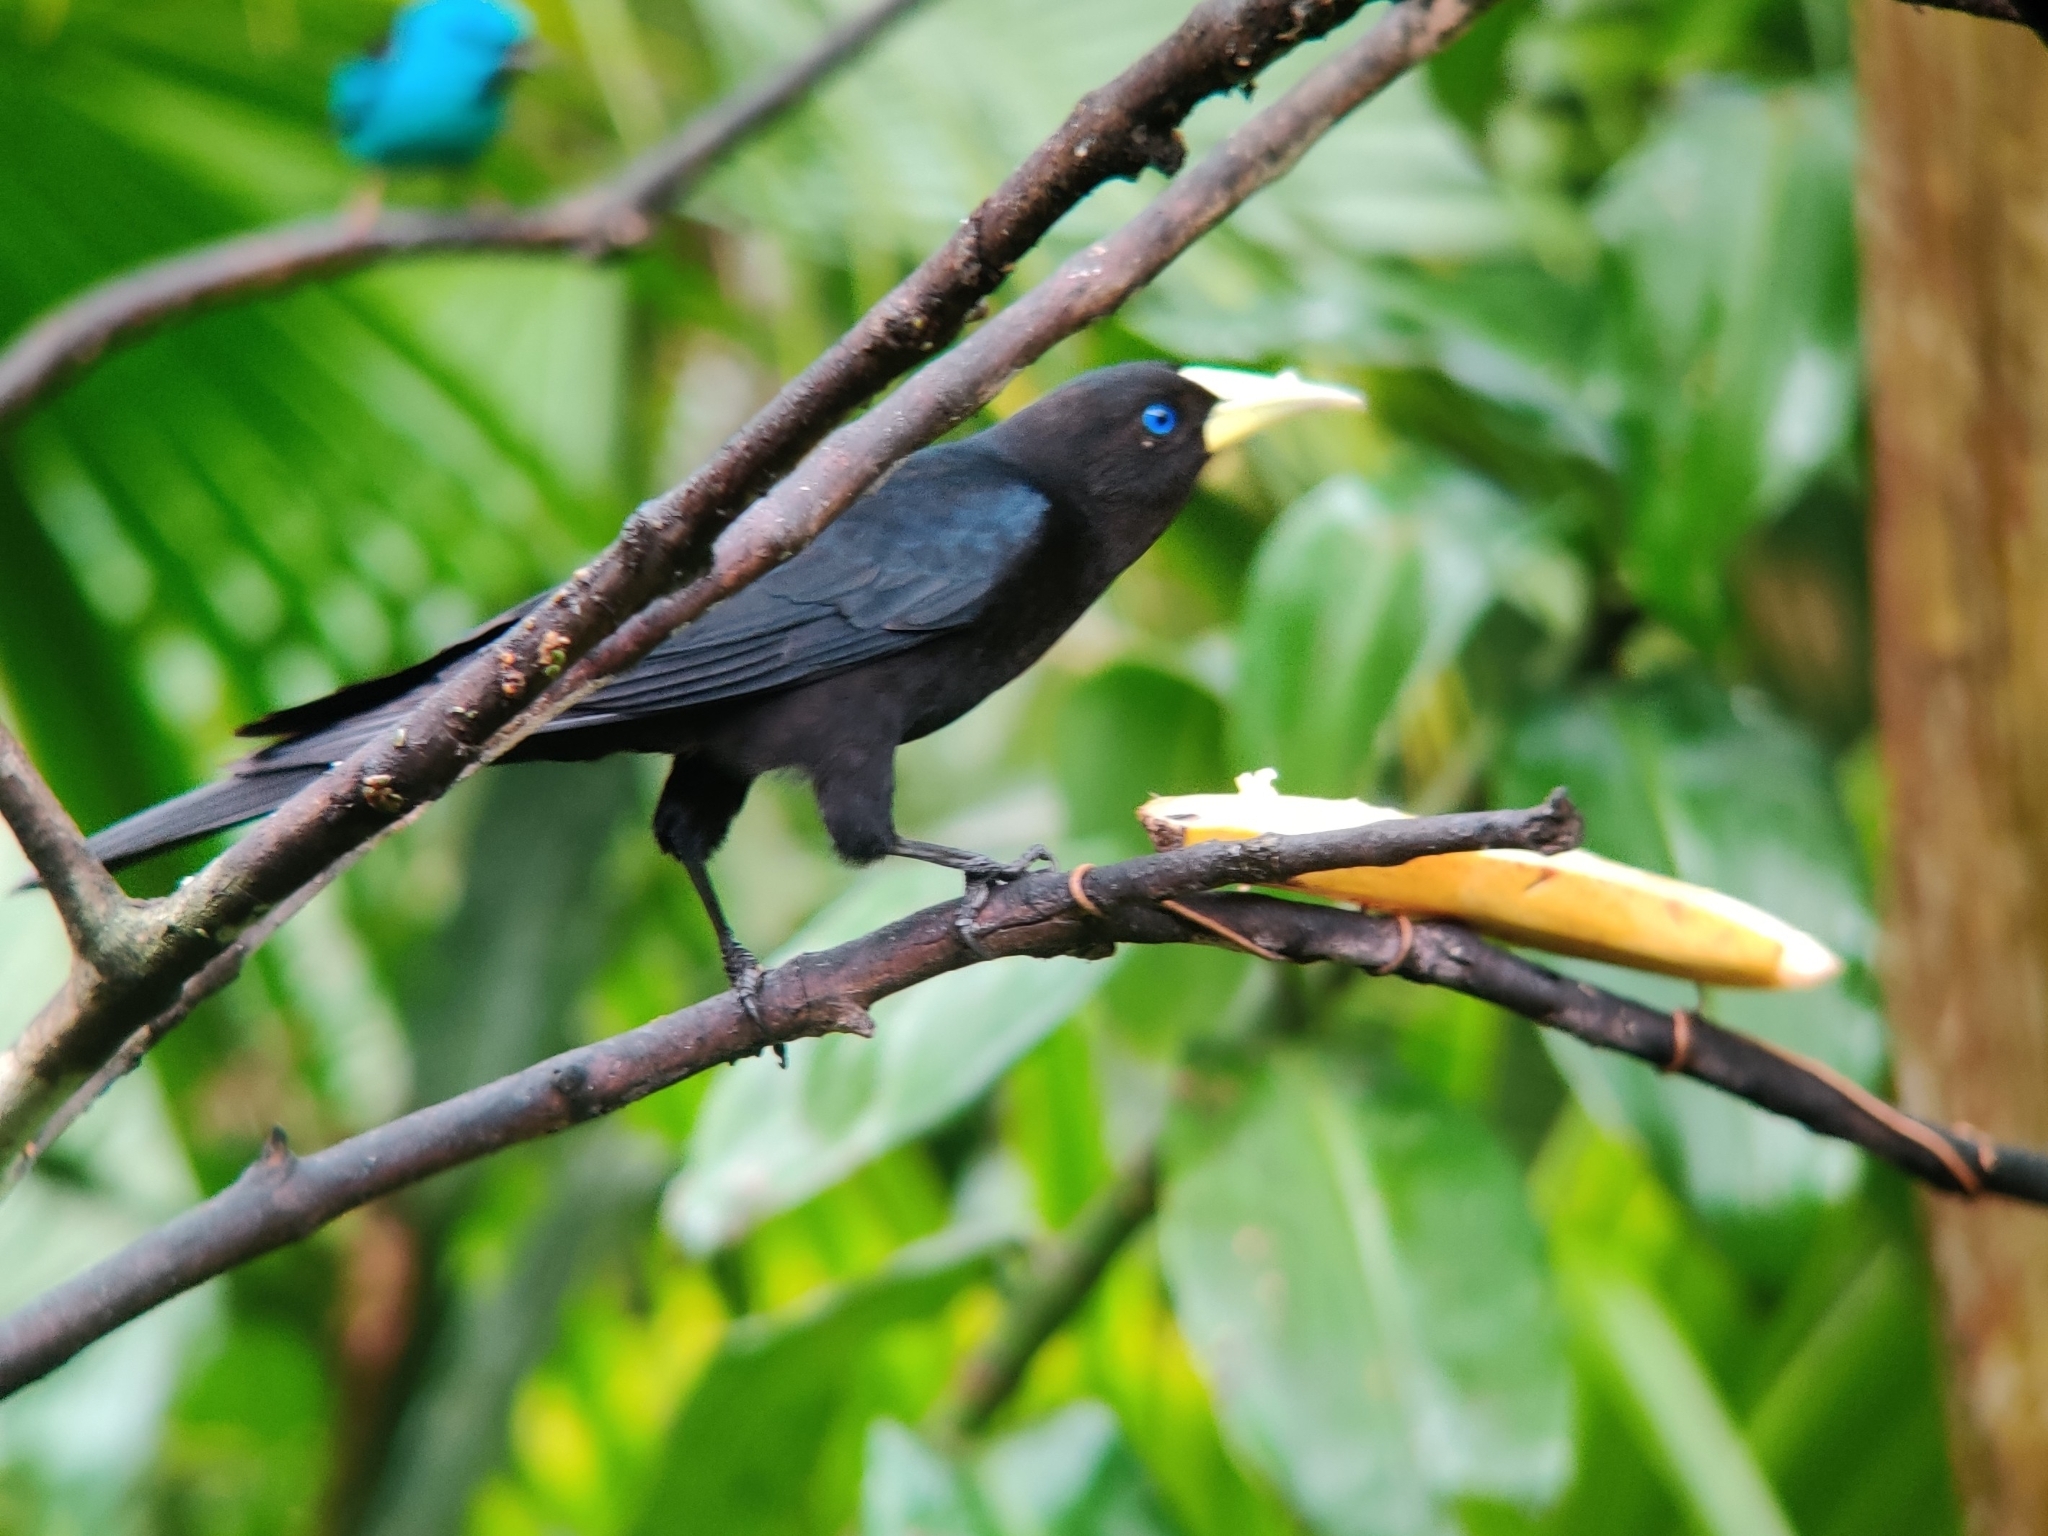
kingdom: Animalia
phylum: Chordata
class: Aves
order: Passeriformes
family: Icteridae
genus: Cacicus
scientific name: Cacicus haemorrhous
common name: Red-rumped cacique
